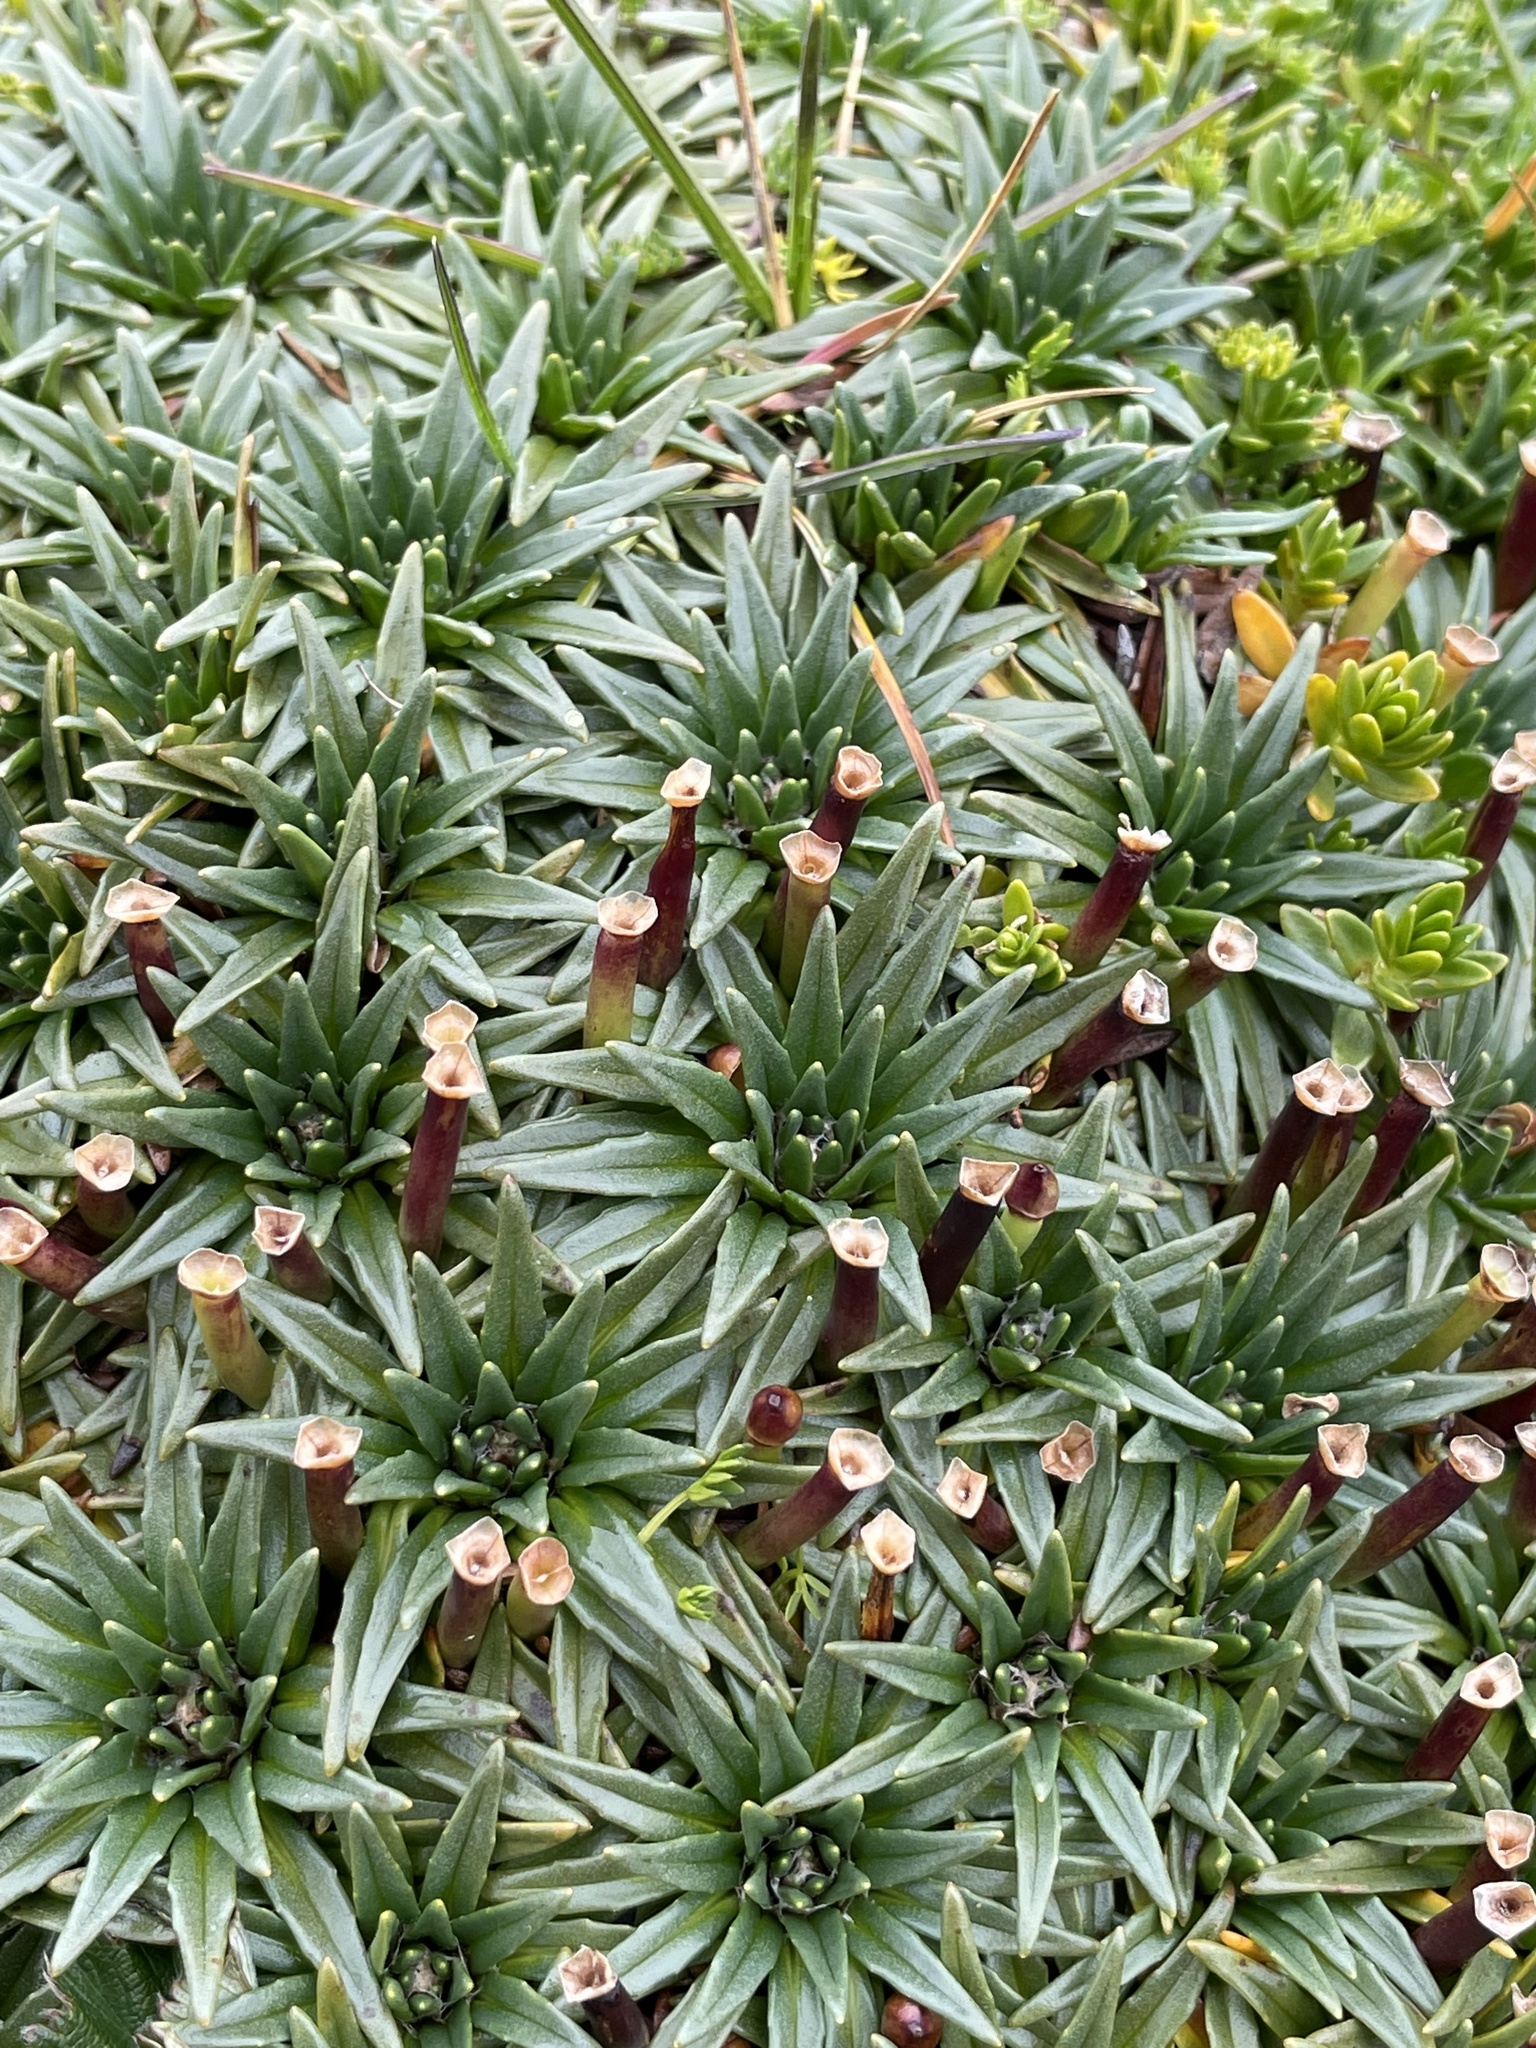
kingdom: Plantae
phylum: Tracheophyta
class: Magnoliopsida
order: Lamiales
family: Plantaginaceae
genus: Plantago
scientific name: Plantago rigida
